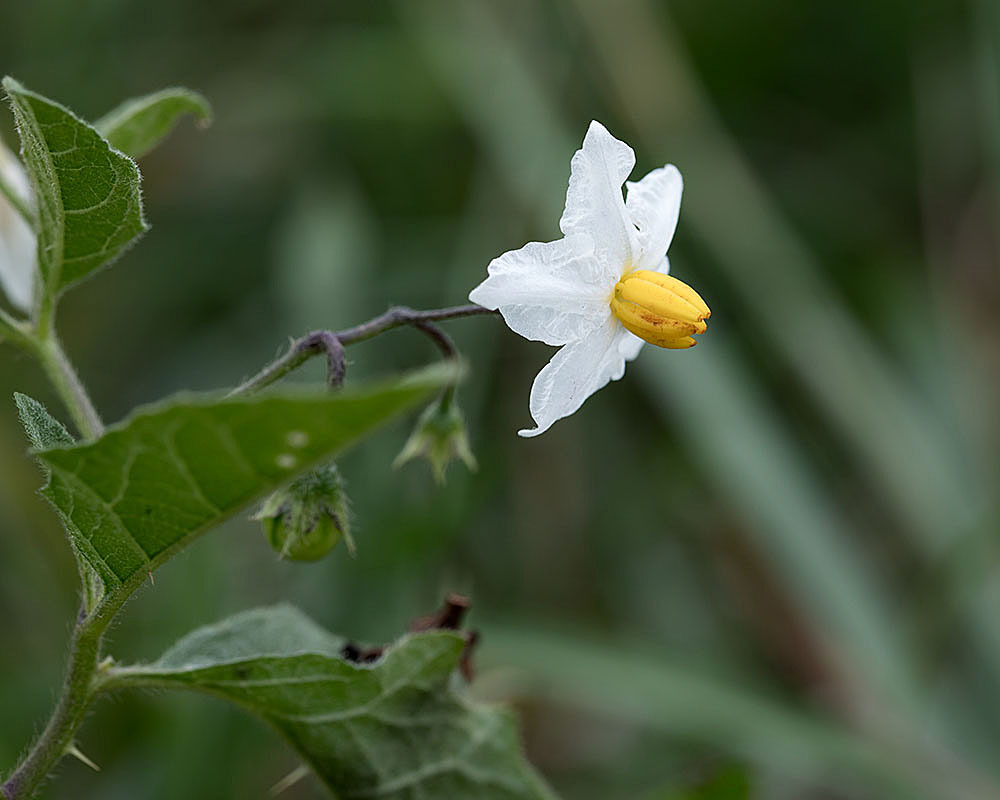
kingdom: Plantae
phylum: Tracheophyta
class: Magnoliopsida
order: Solanales
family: Solanaceae
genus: Solanum
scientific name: Solanum carolinense
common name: Horse-nettle
